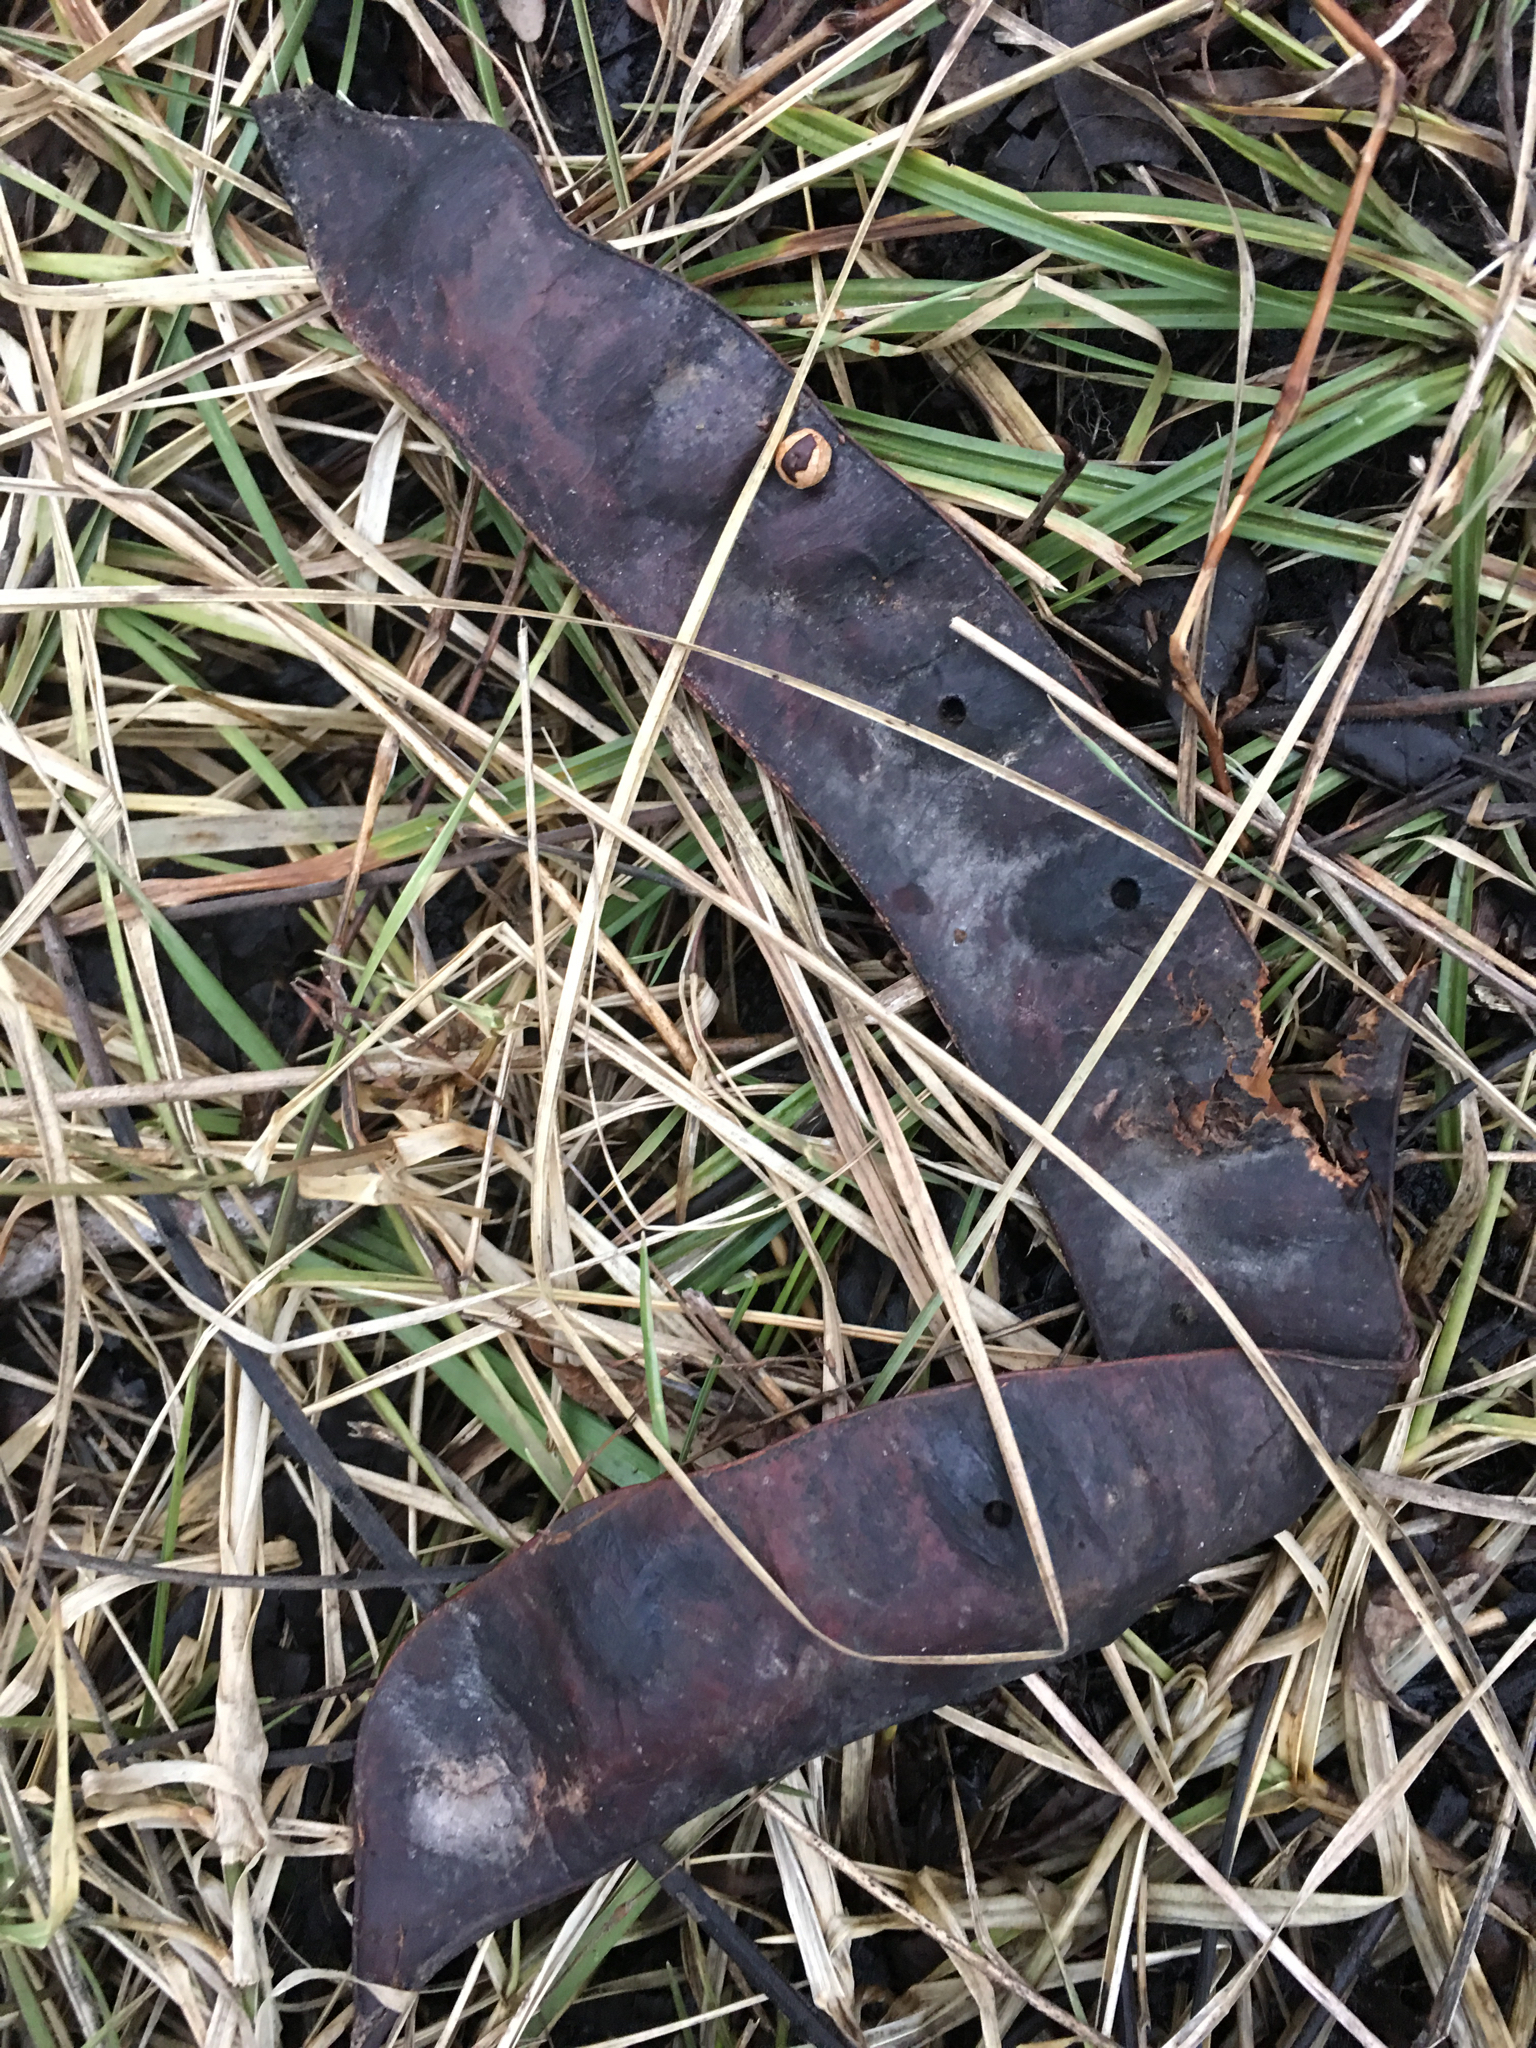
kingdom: Plantae
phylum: Tracheophyta
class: Magnoliopsida
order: Fabales
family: Fabaceae
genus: Gleditsia
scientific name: Gleditsia triacanthos
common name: Common honeylocust
